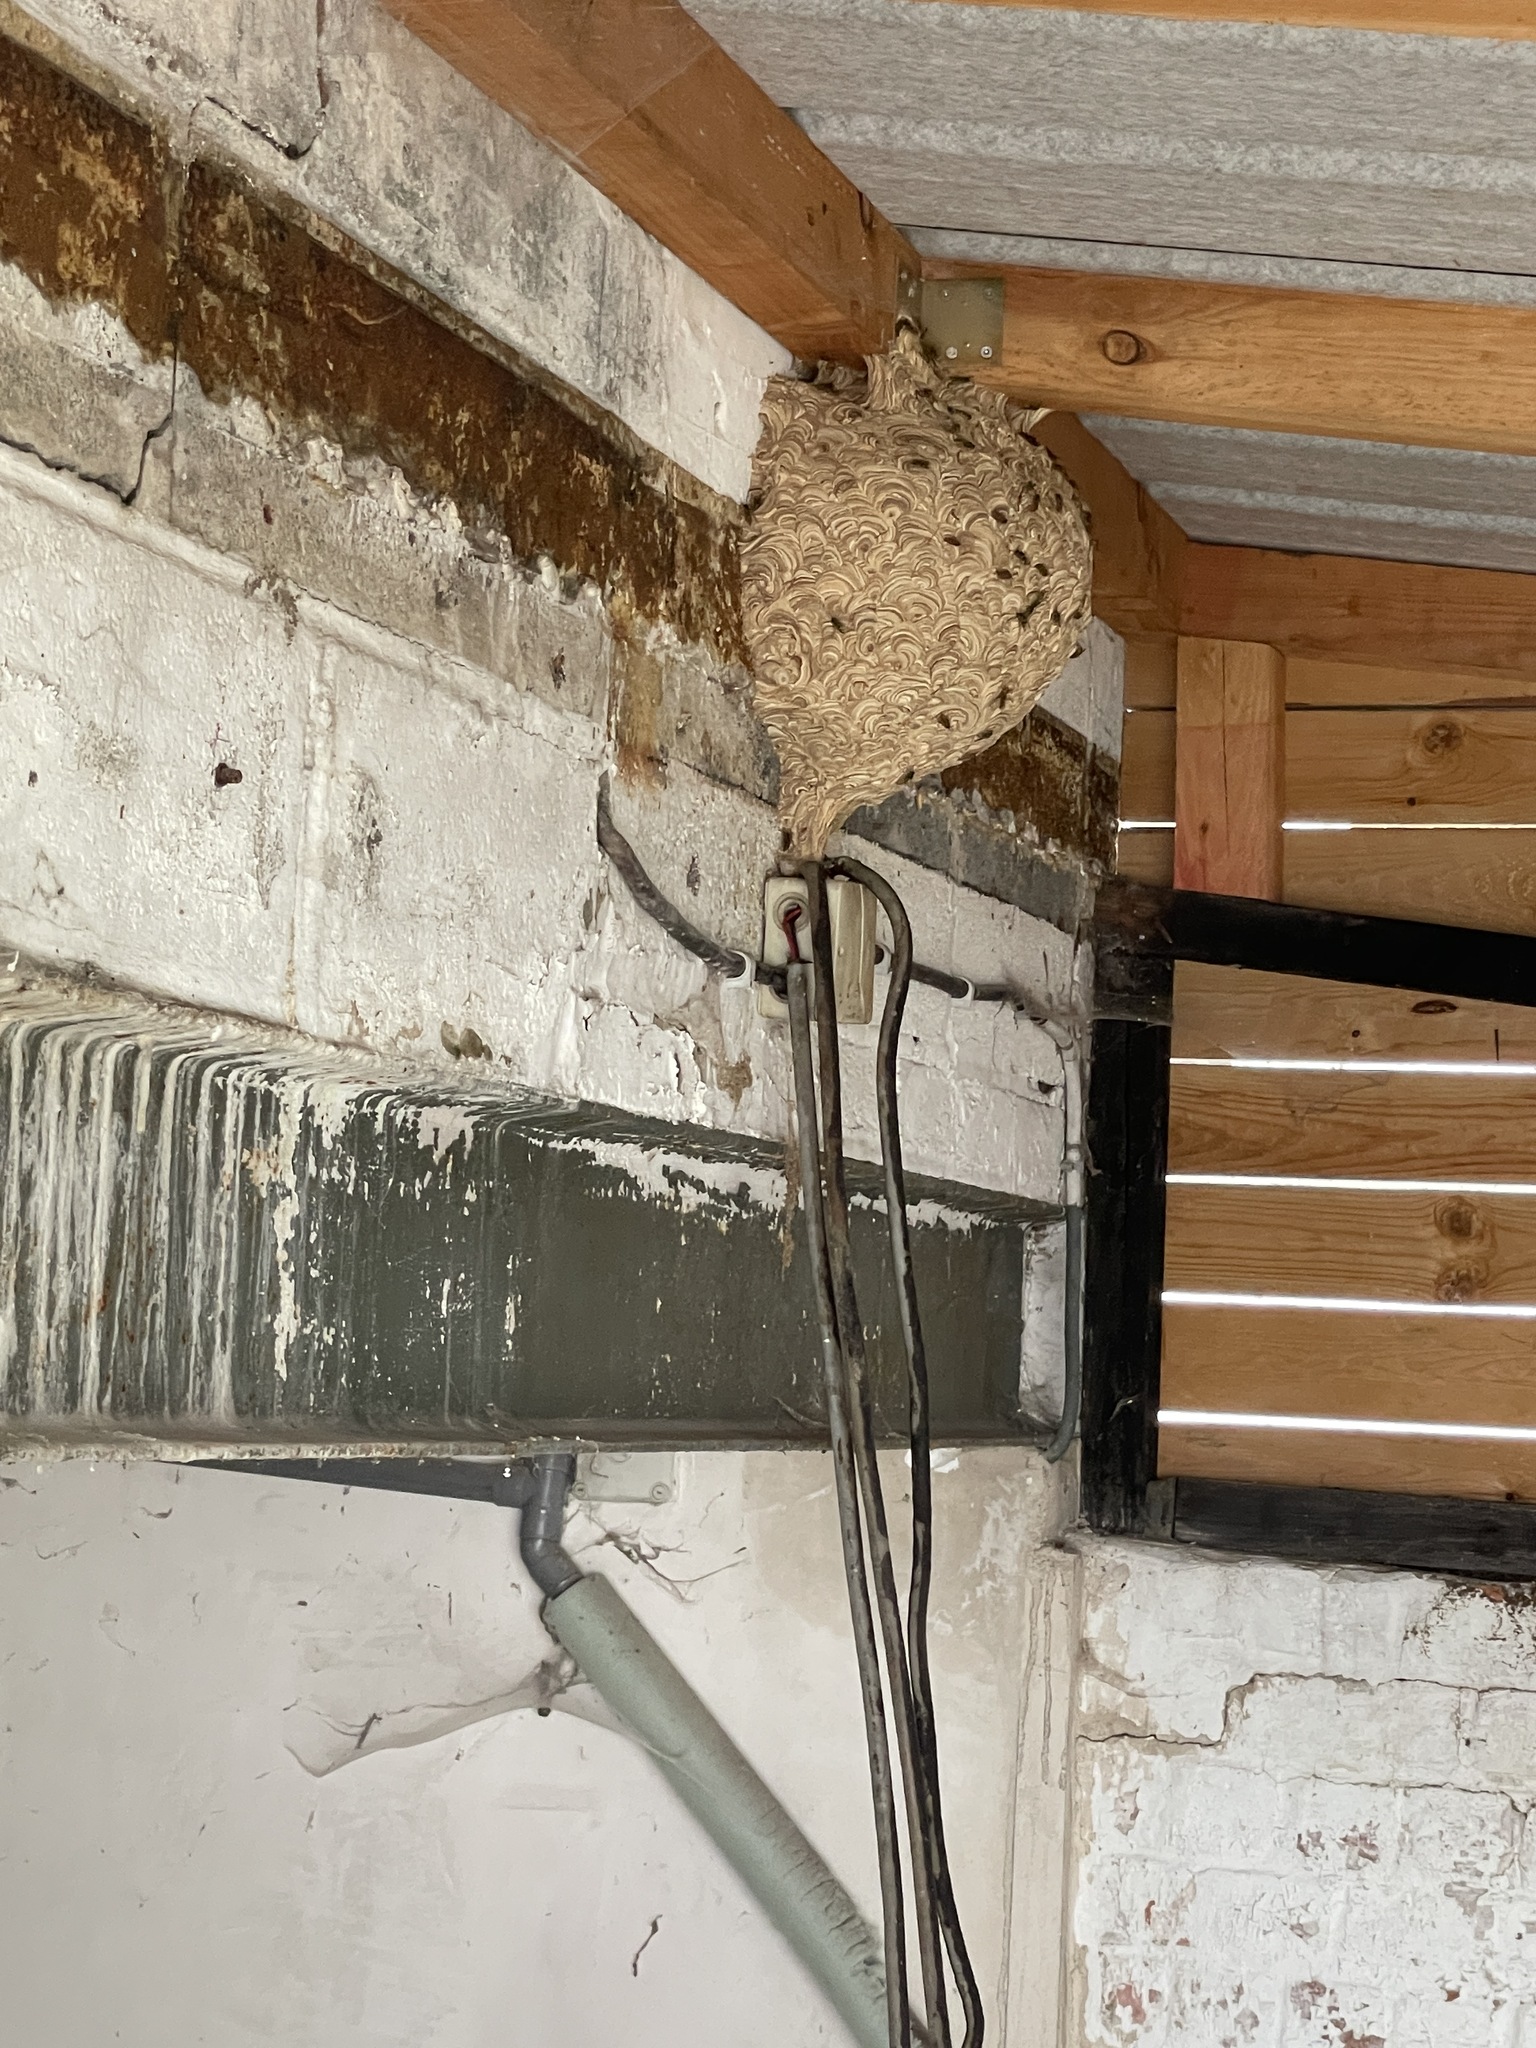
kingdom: Animalia
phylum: Arthropoda
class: Insecta
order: Hymenoptera
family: Vespidae
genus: Vespa
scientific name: Vespa velutina
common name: Asian hornet
